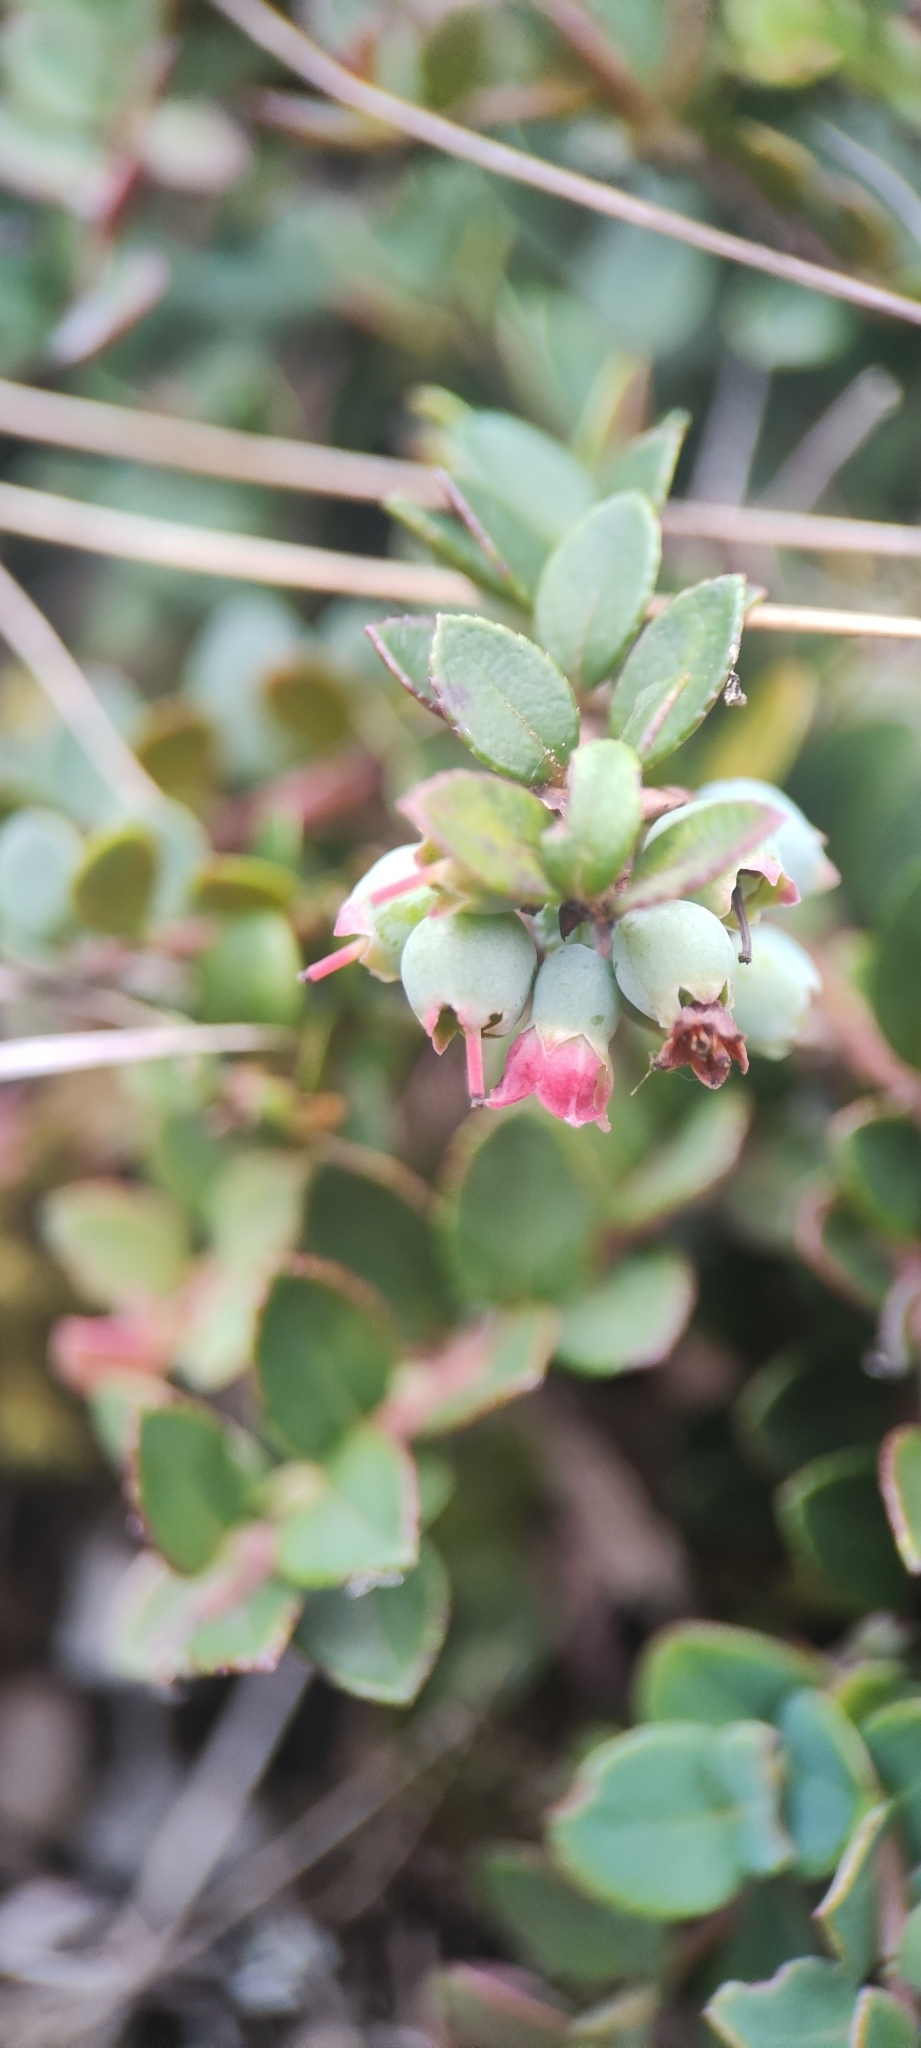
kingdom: Plantae
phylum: Tracheophyta
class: Magnoliopsida
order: Ericales
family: Ericaceae
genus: Vaccinium
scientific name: Vaccinium floribundum
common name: Colombian blueberry
